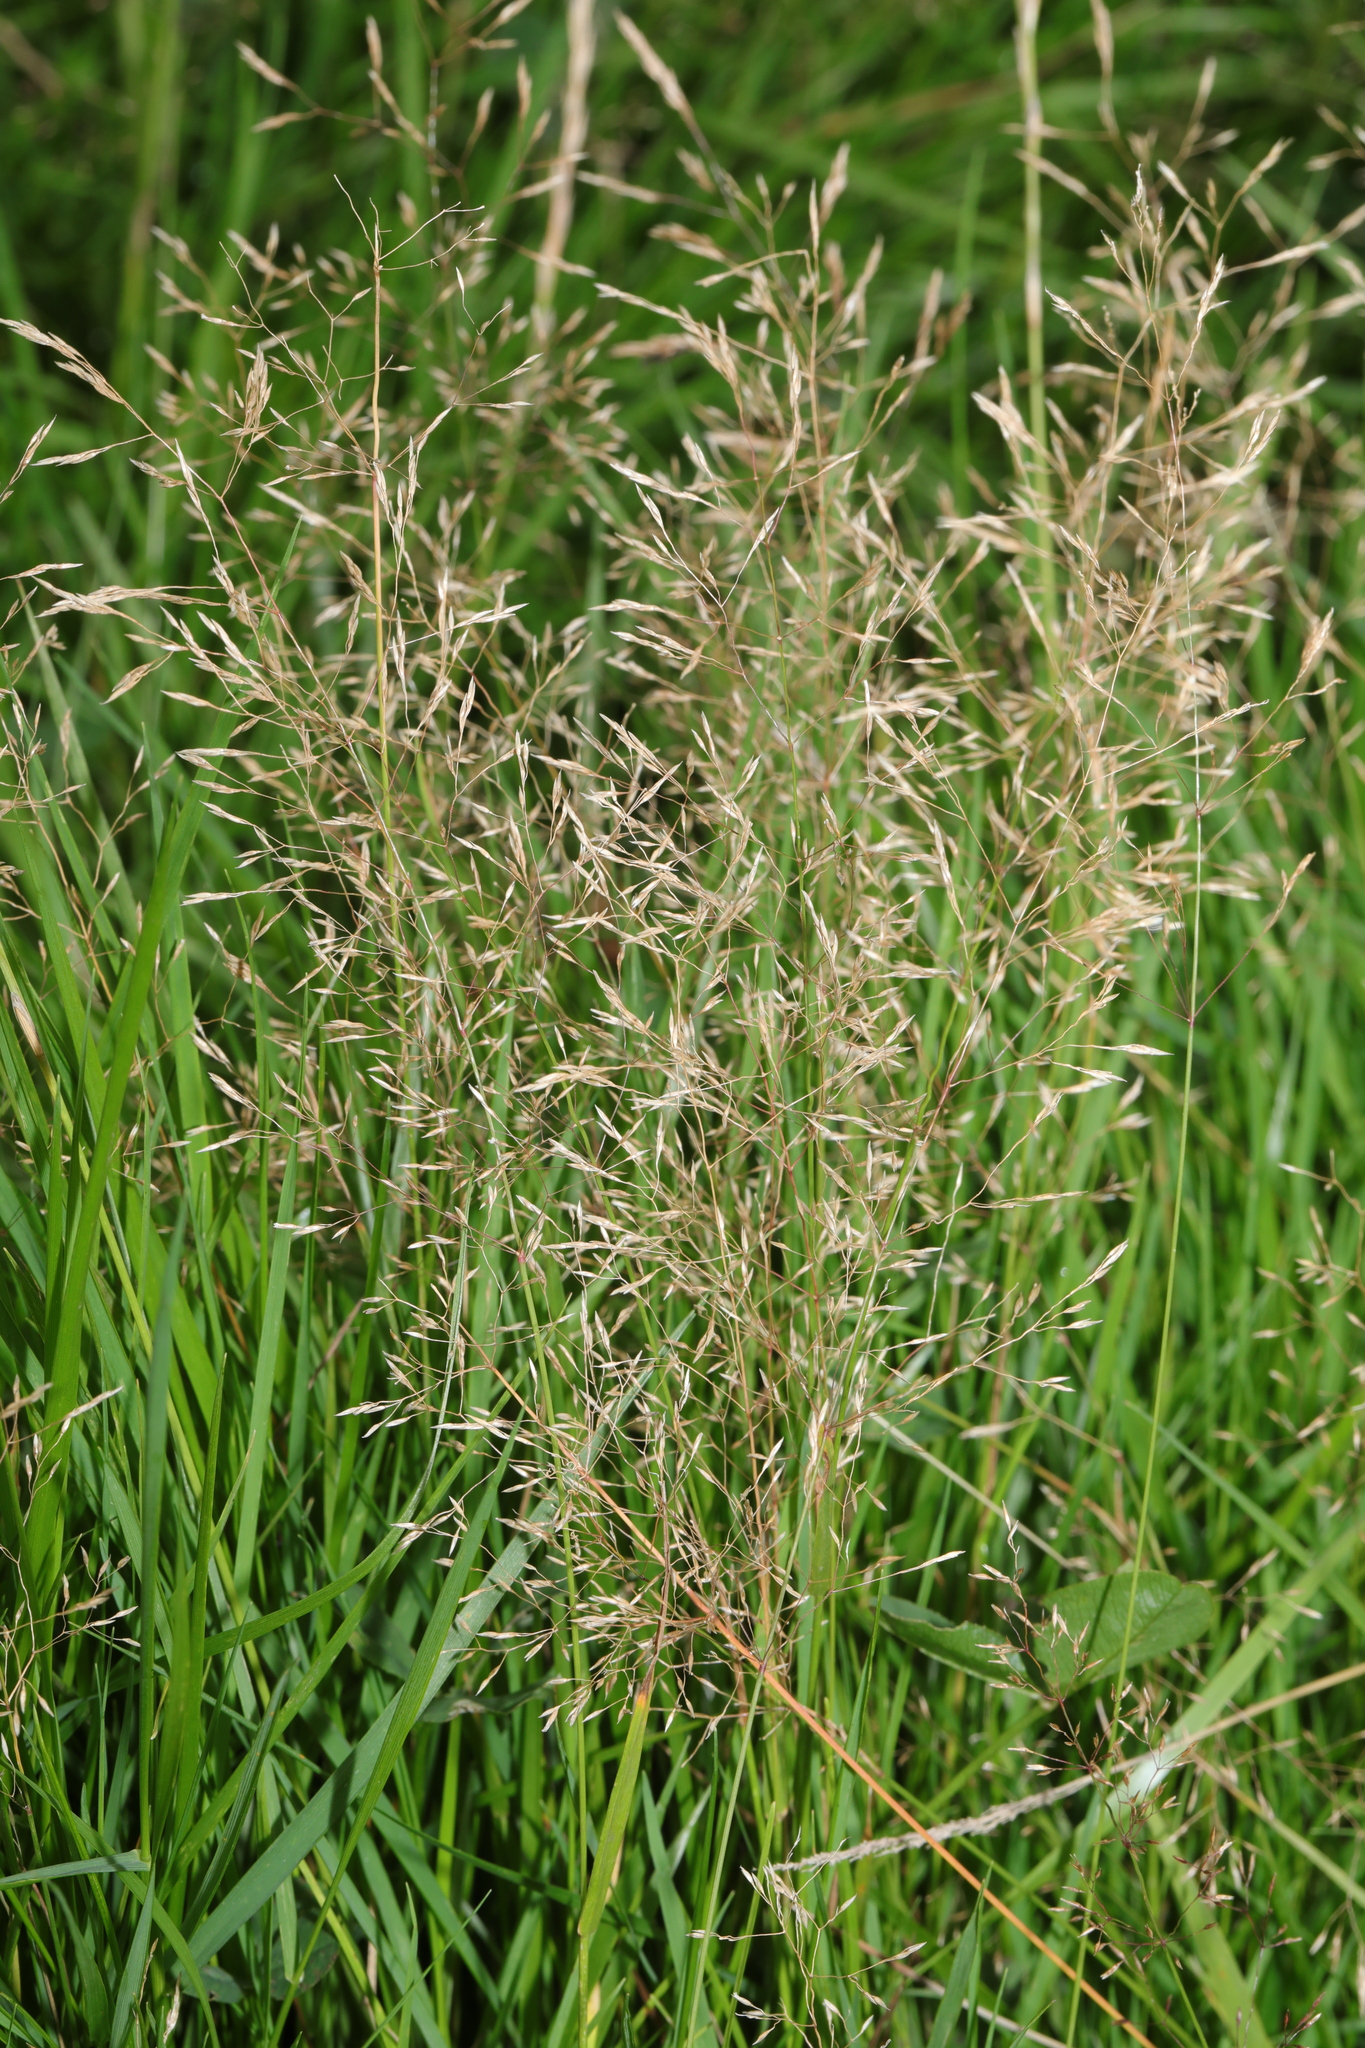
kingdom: Plantae
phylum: Tracheophyta
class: Liliopsida
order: Poales
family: Poaceae
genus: Agrostis
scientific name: Agrostis capillaris
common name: Colonial bentgrass
